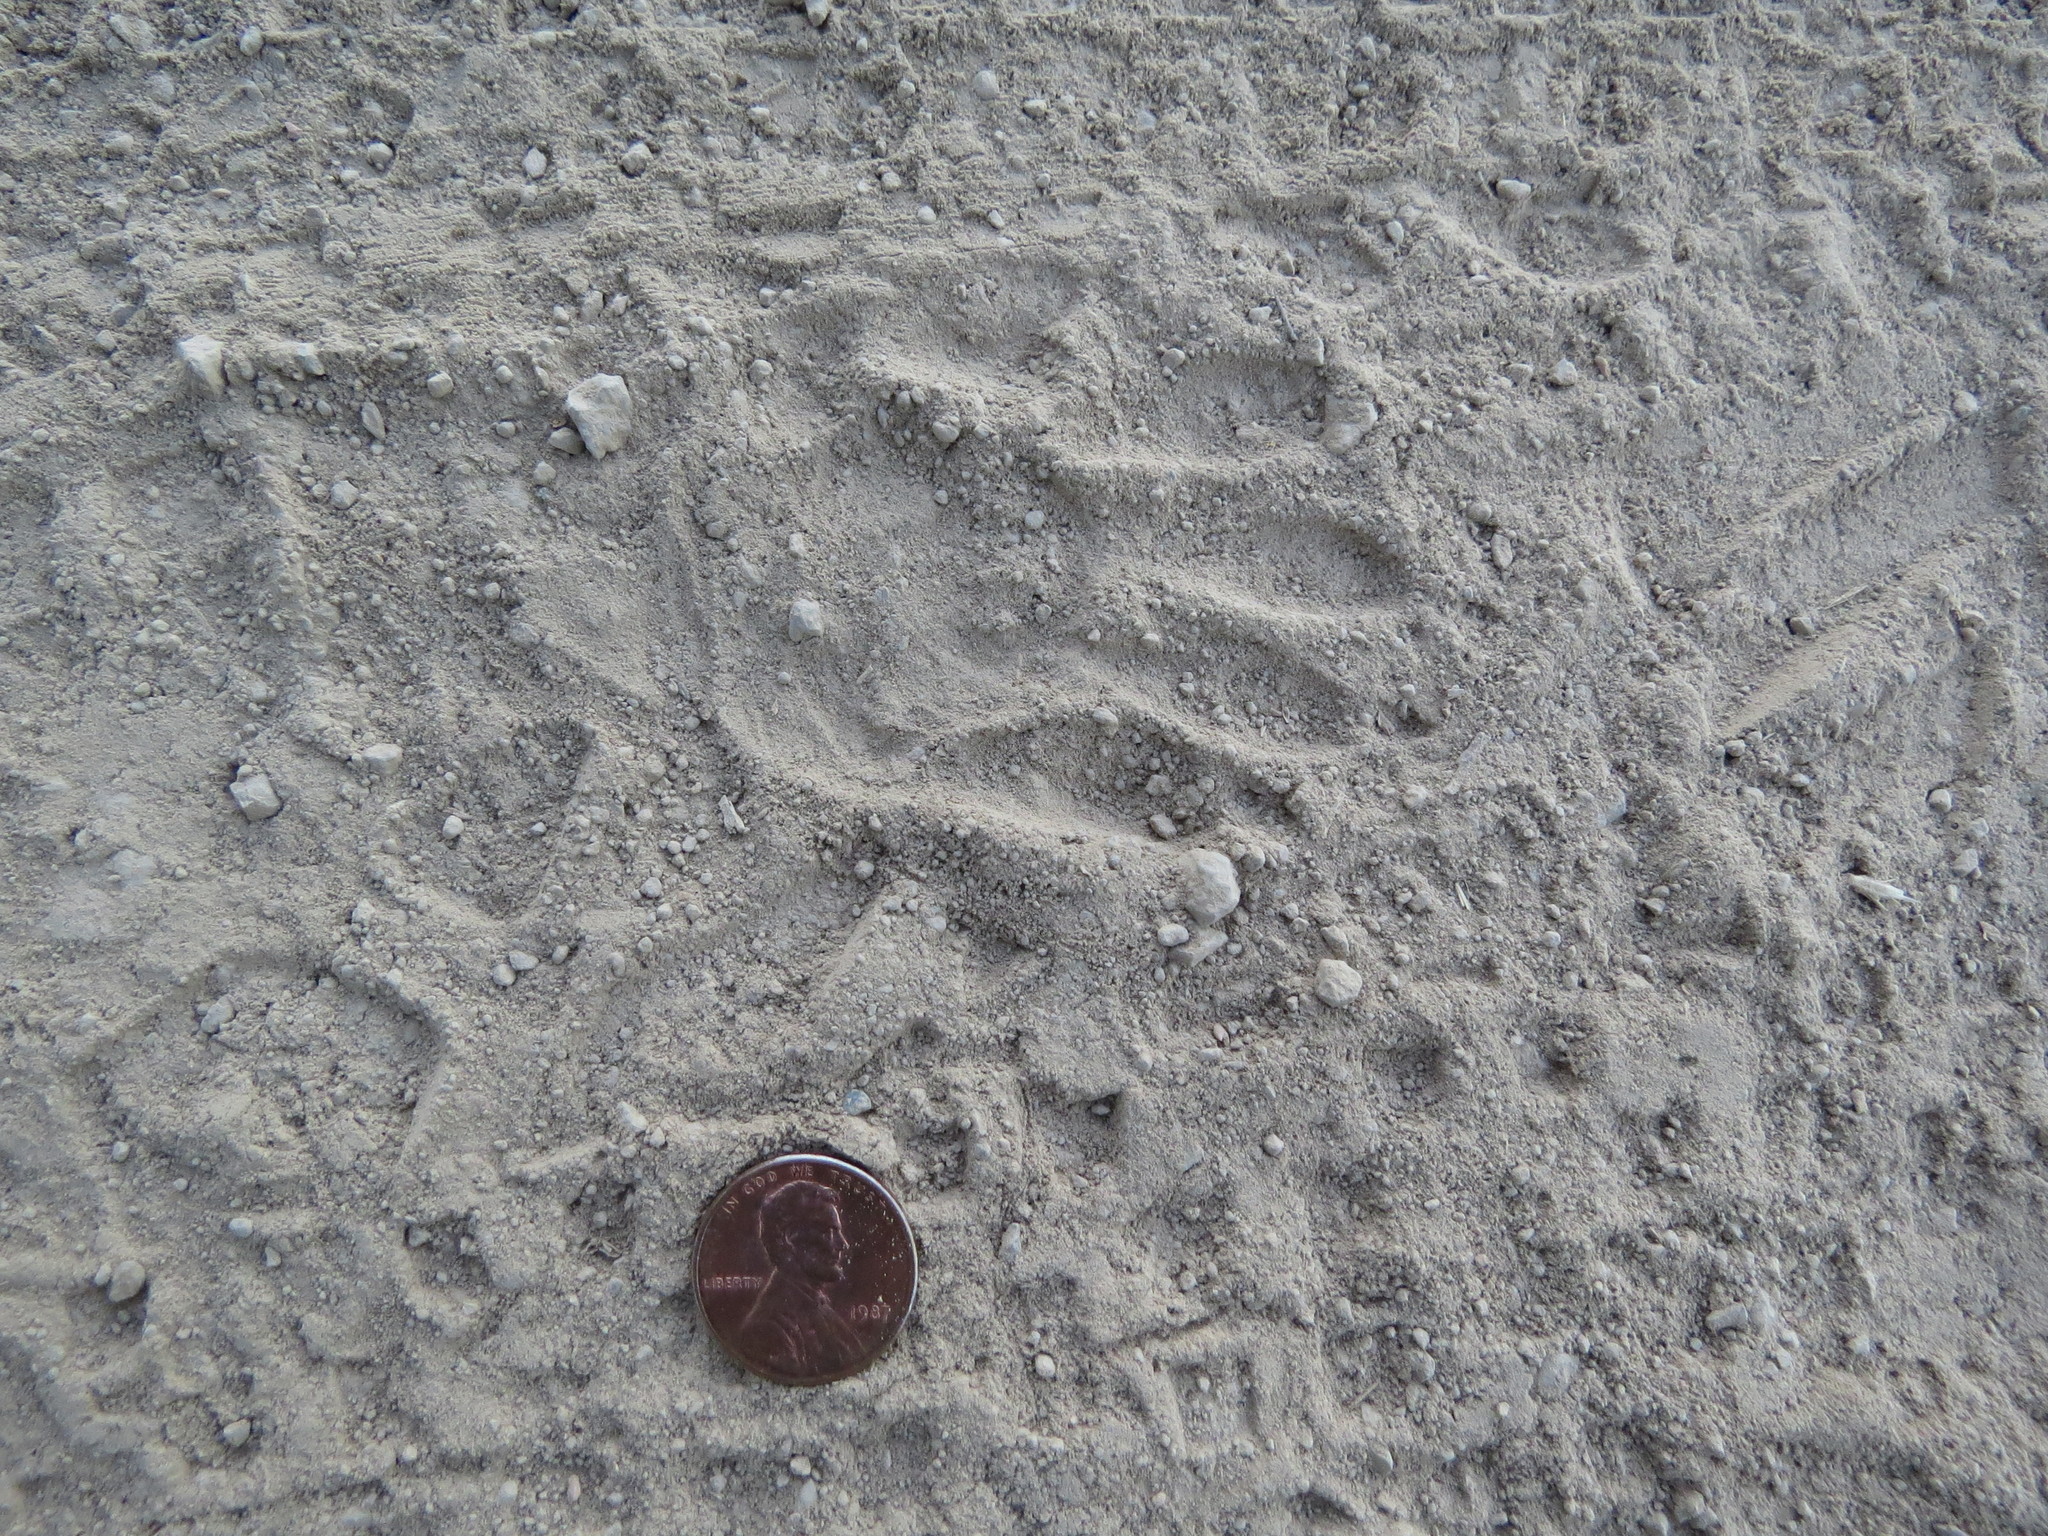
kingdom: Animalia
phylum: Chordata
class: Mammalia
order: Carnivora
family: Procyonidae
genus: Procyon
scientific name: Procyon lotor
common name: Raccoon
